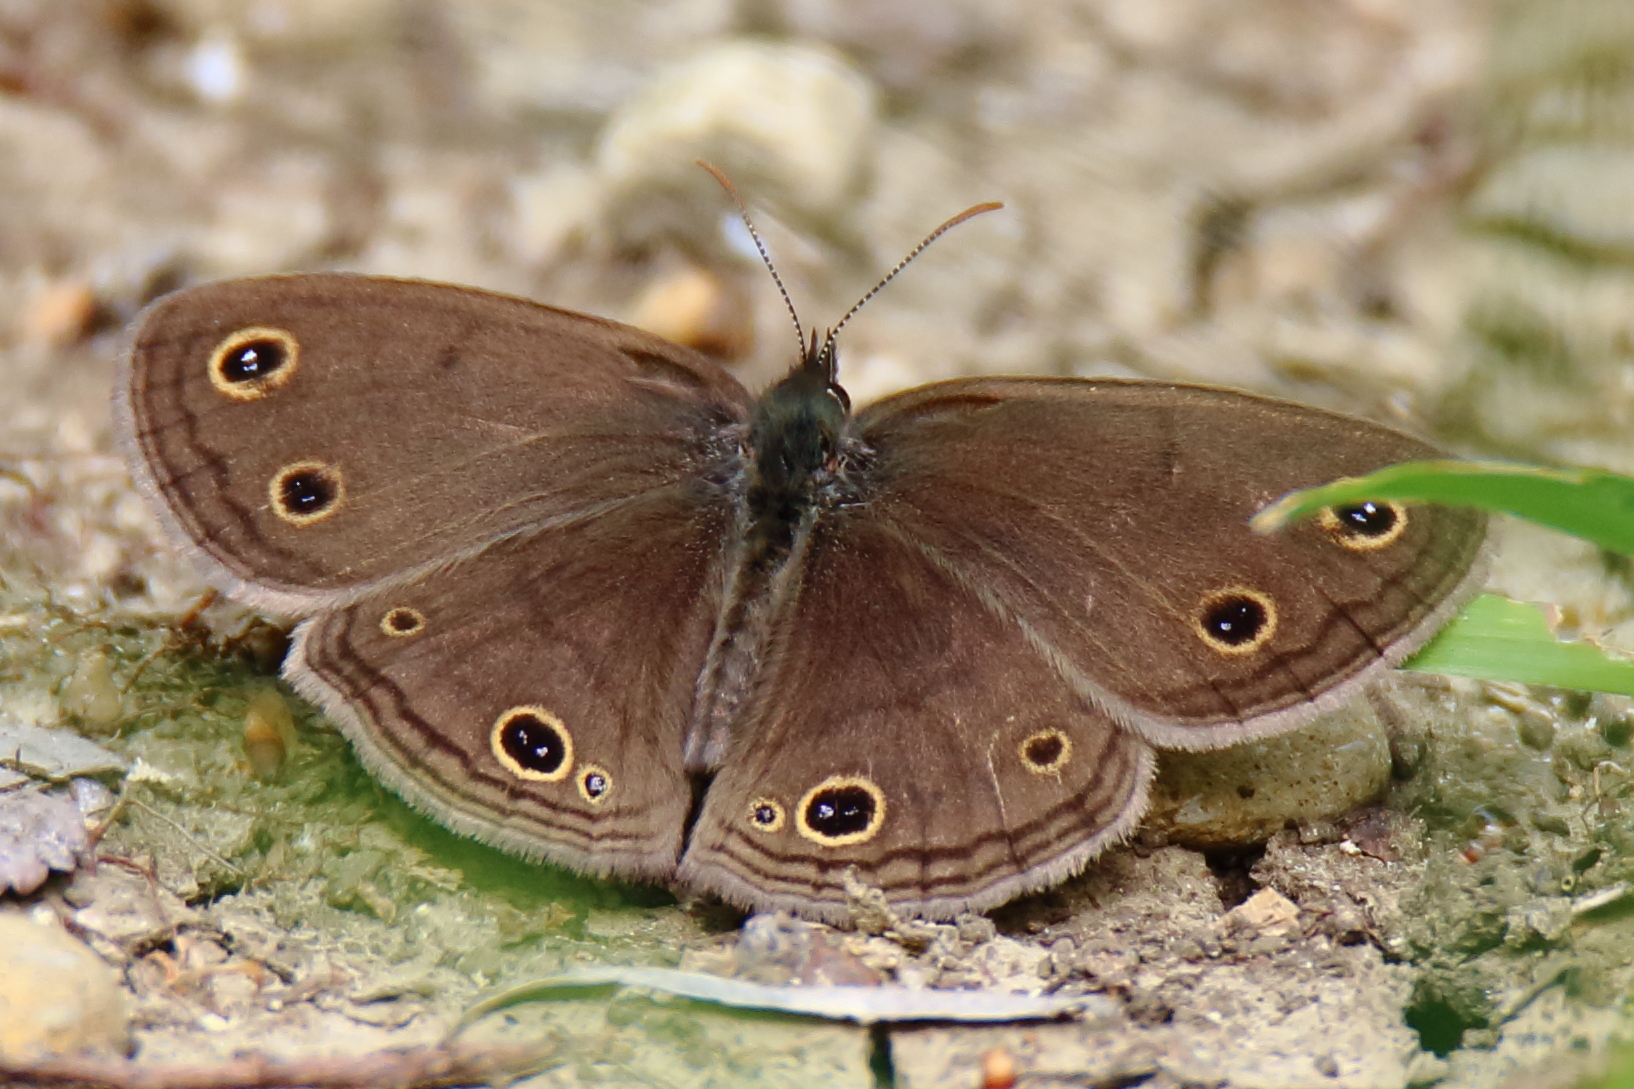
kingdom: Animalia
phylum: Arthropoda
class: Insecta
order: Lepidoptera
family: Nymphalidae
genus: Euptychia
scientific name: Euptychia cymela
